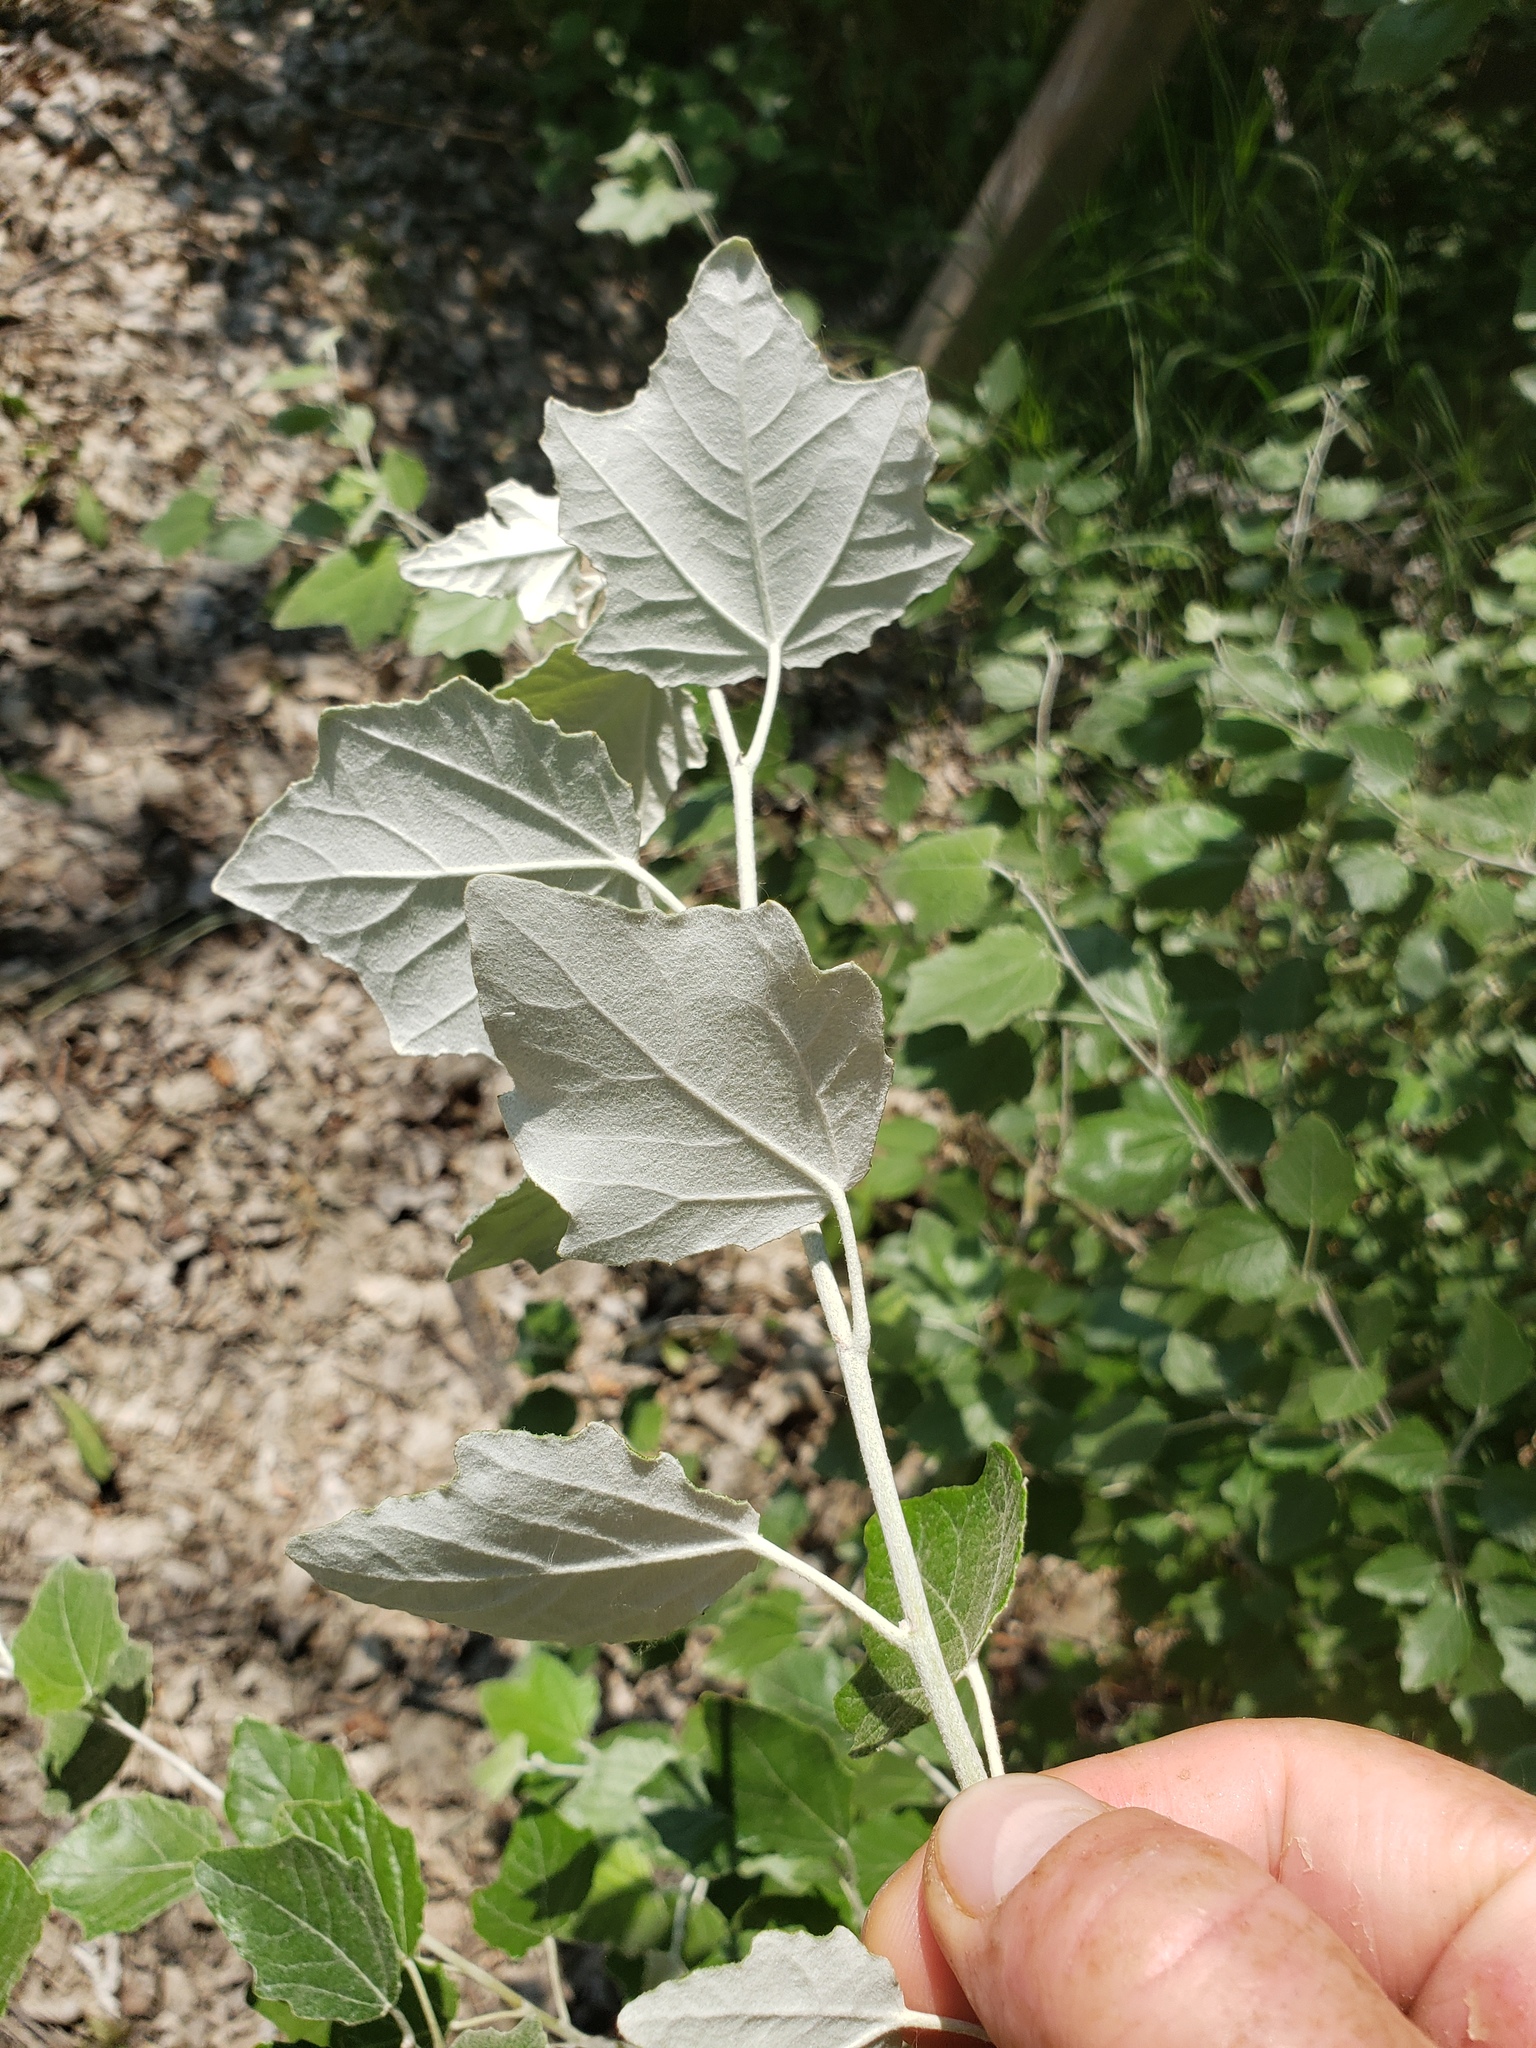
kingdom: Plantae
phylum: Tracheophyta
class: Magnoliopsida
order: Malpighiales
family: Salicaceae
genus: Populus
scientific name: Populus alba
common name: White poplar
